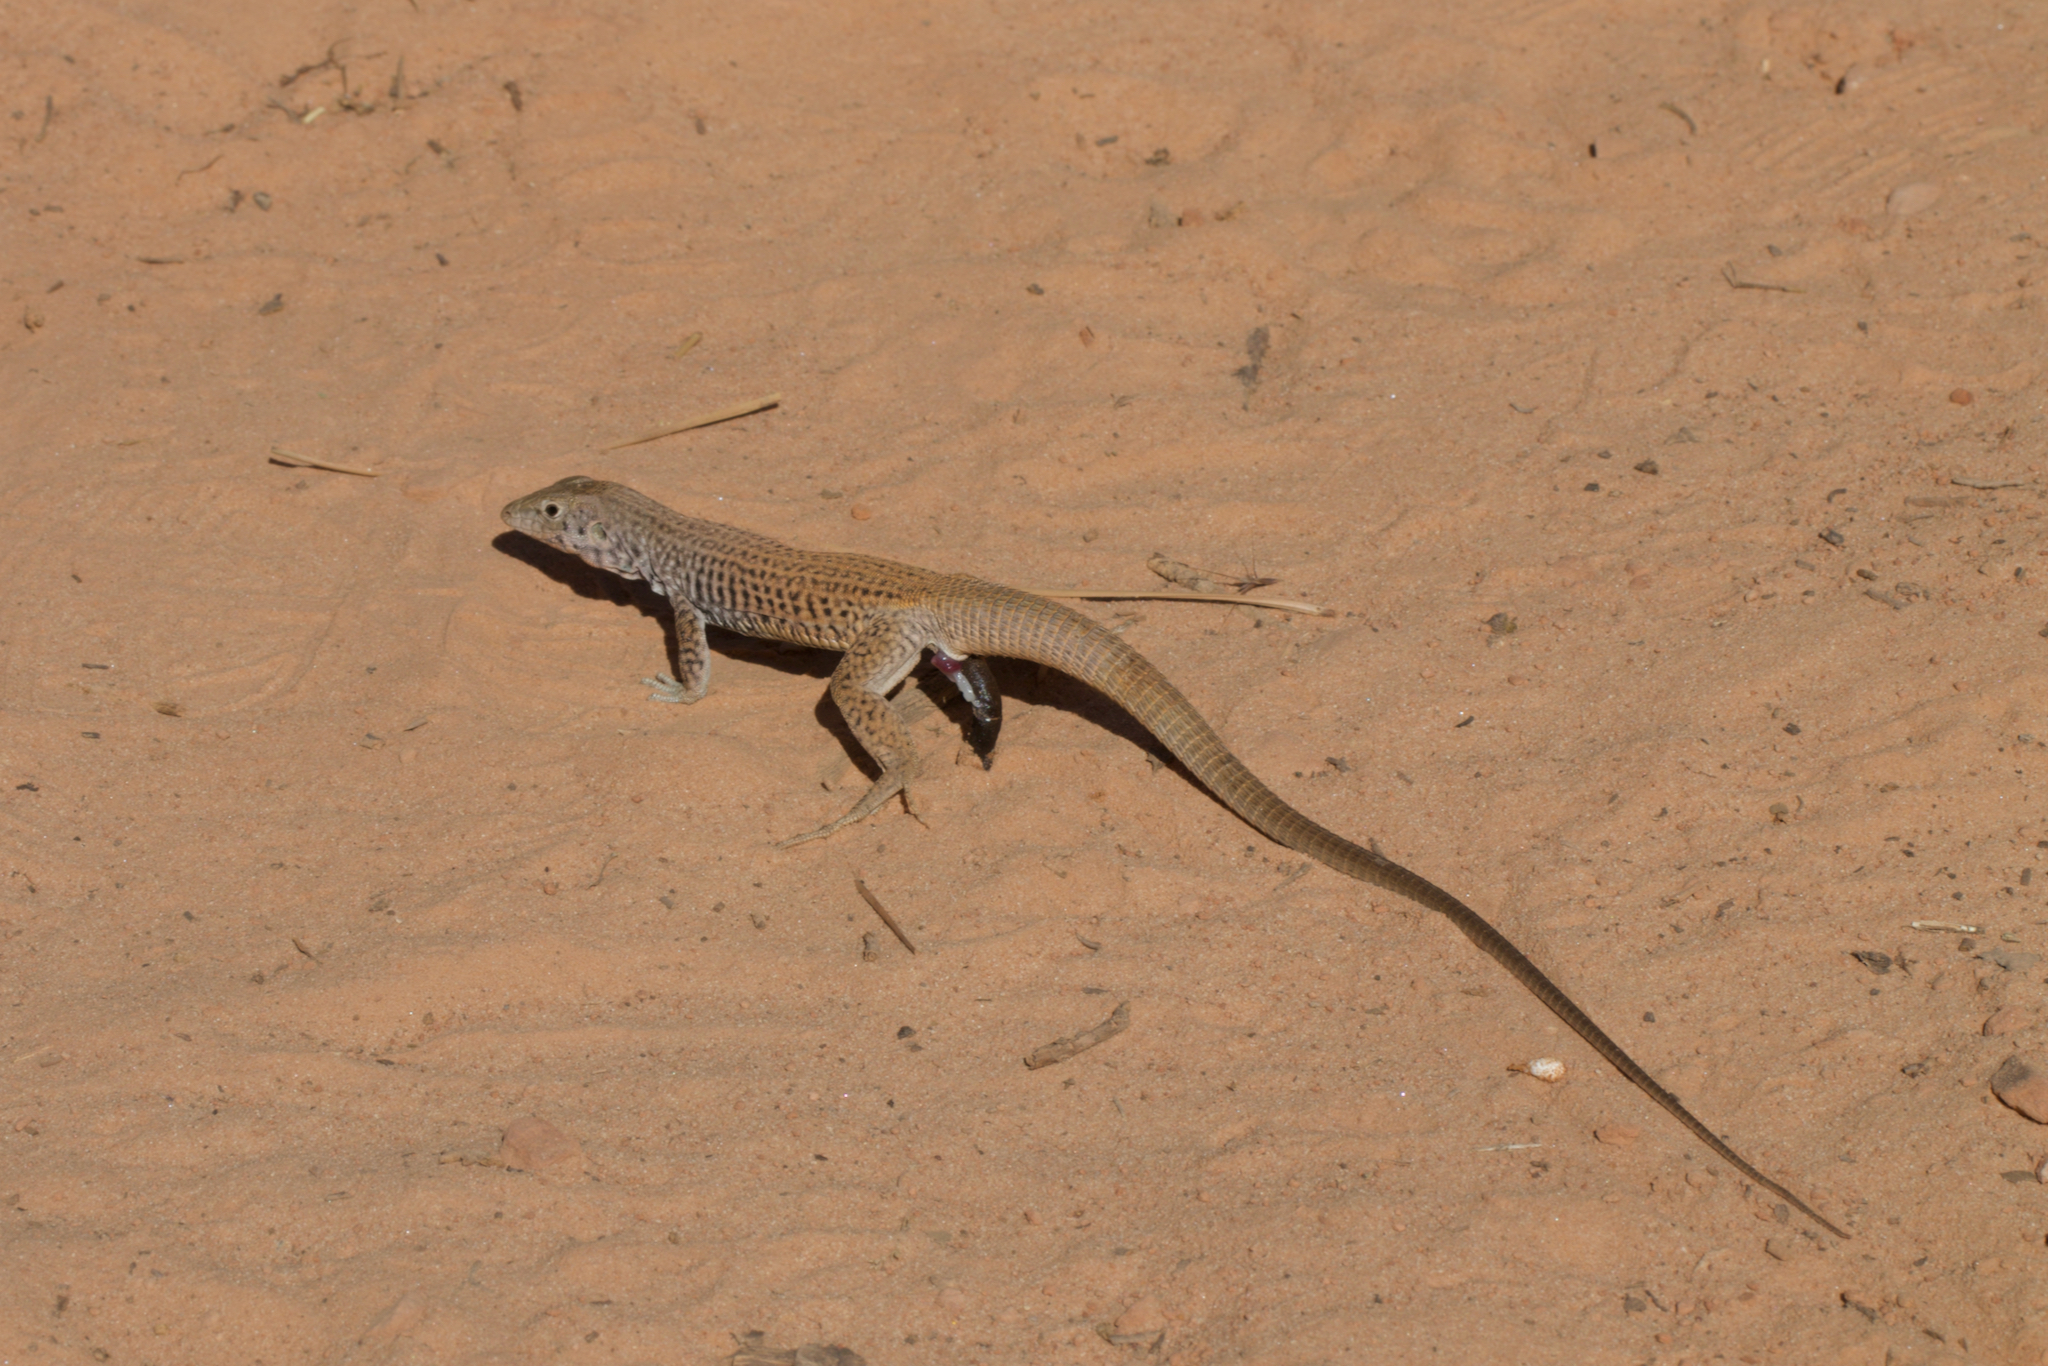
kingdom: Animalia
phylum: Chordata
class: Squamata
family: Teiidae
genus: Aspidoscelis
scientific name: Aspidoscelis tigris
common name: Tiger whiptail
